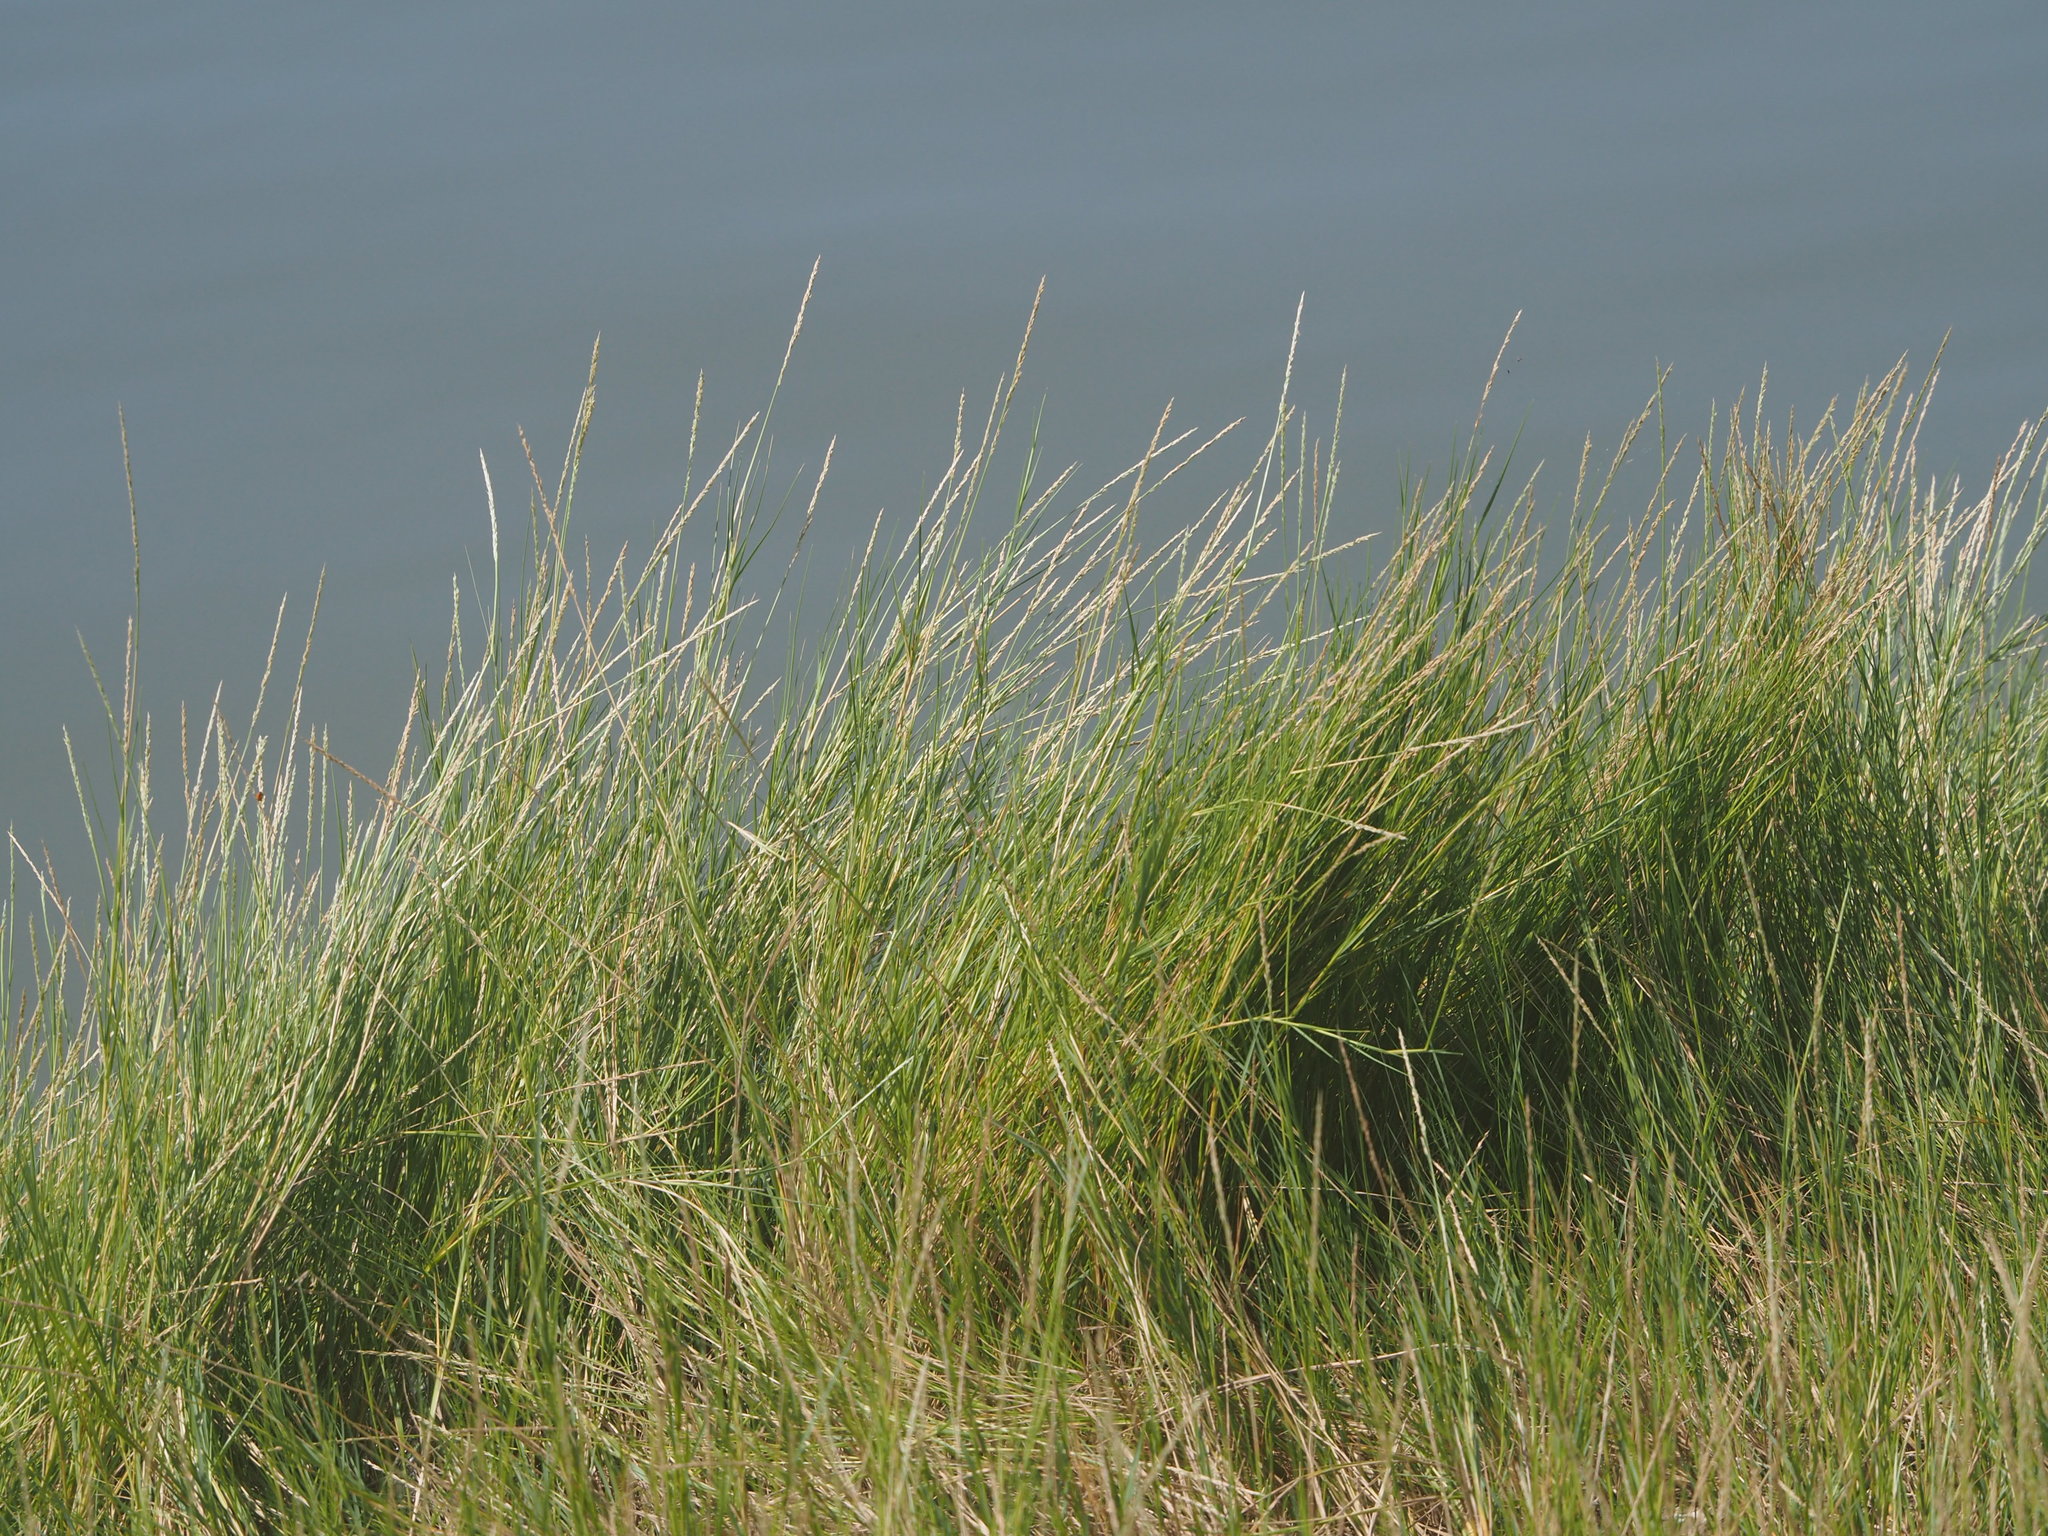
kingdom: Plantae
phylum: Tracheophyta
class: Liliopsida
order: Poales
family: Poaceae
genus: Sporobolus
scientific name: Sporobolus virginicus
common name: Beach dropseed
